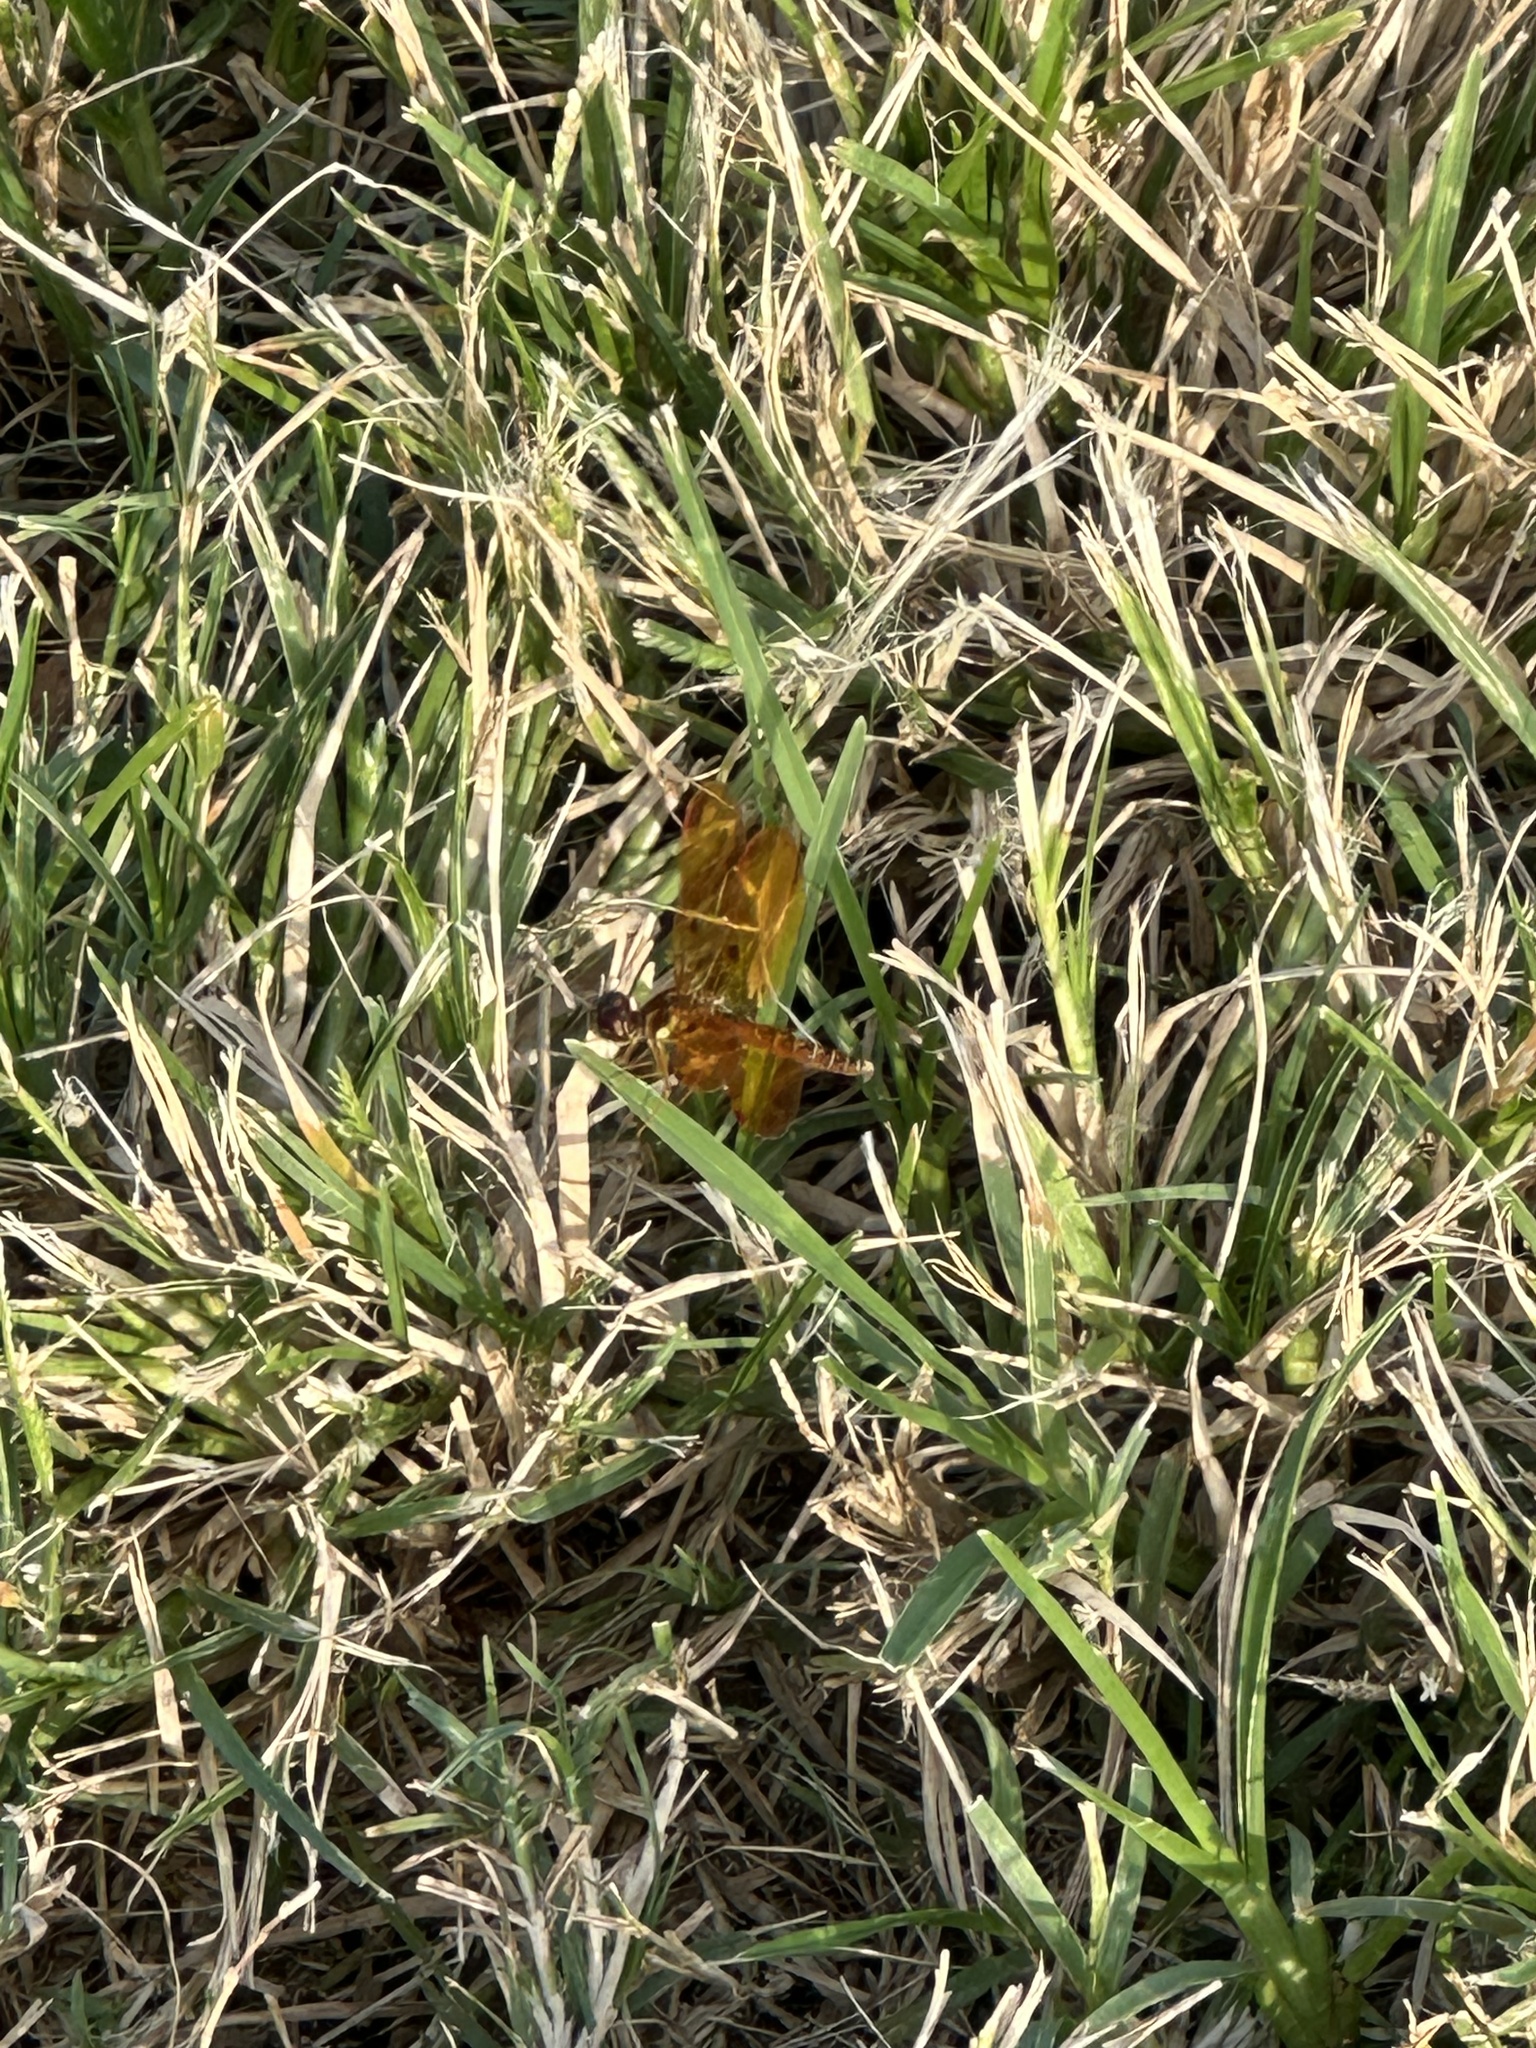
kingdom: Animalia
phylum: Arthropoda
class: Insecta
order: Odonata
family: Libellulidae
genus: Perithemis
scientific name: Perithemis tenera
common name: Eastern amberwing
